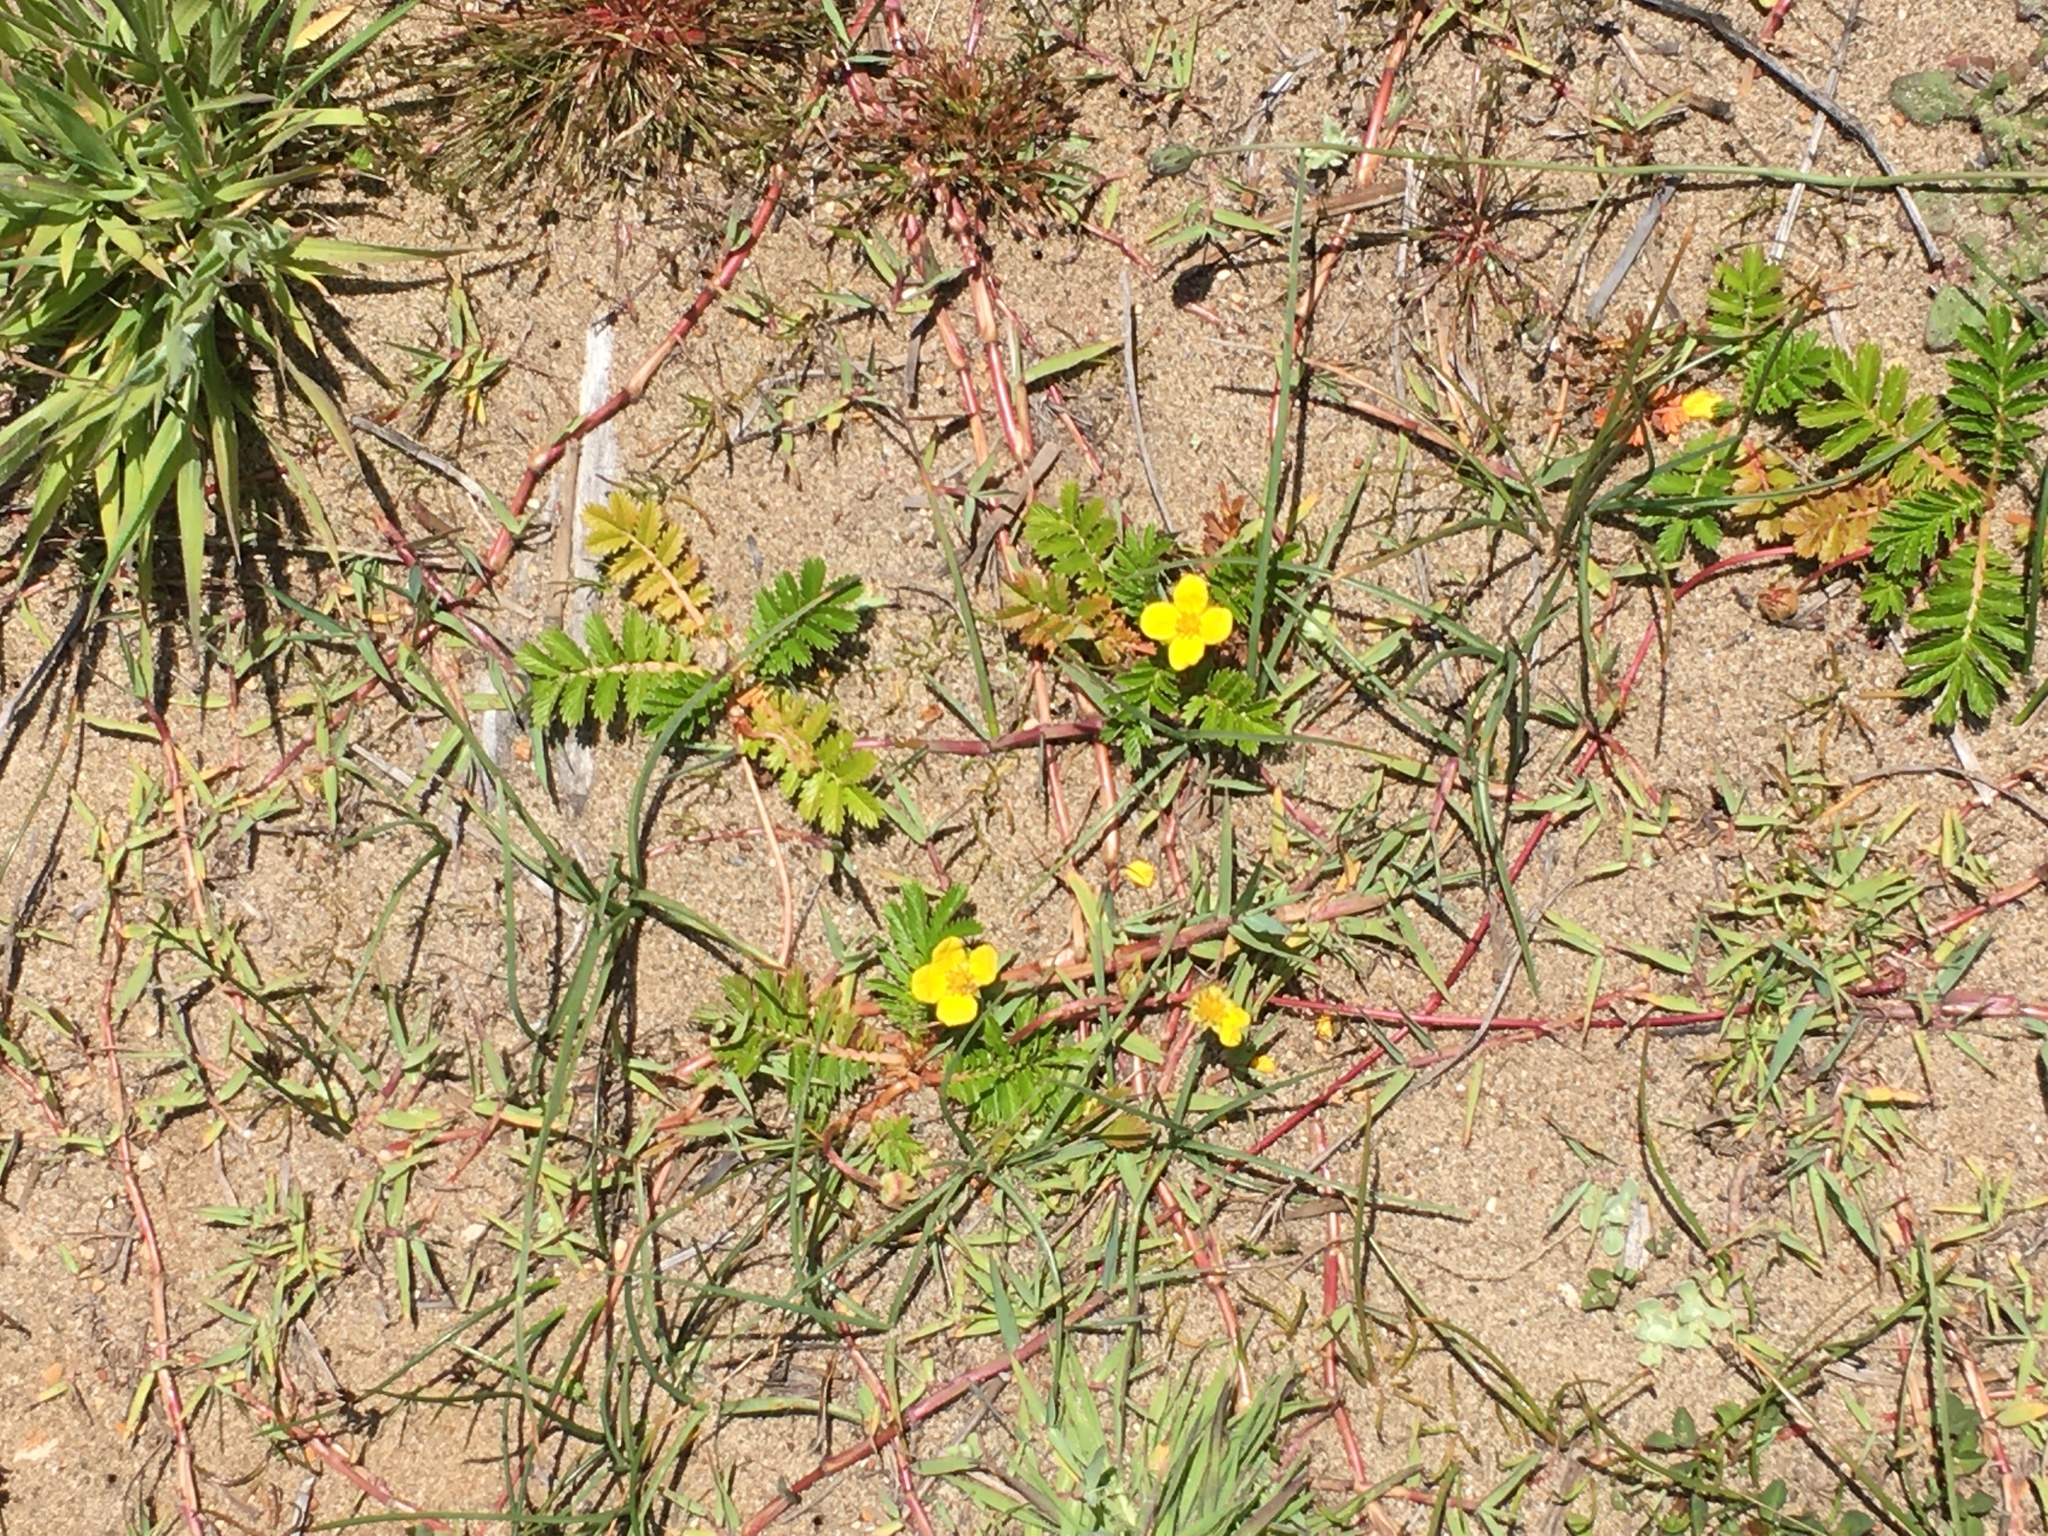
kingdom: Plantae
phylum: Tracheophyta
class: Magnoliopsida
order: Rosales
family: Rosaceae
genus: Argentina
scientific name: Argentina anserina
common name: Common silverweed
